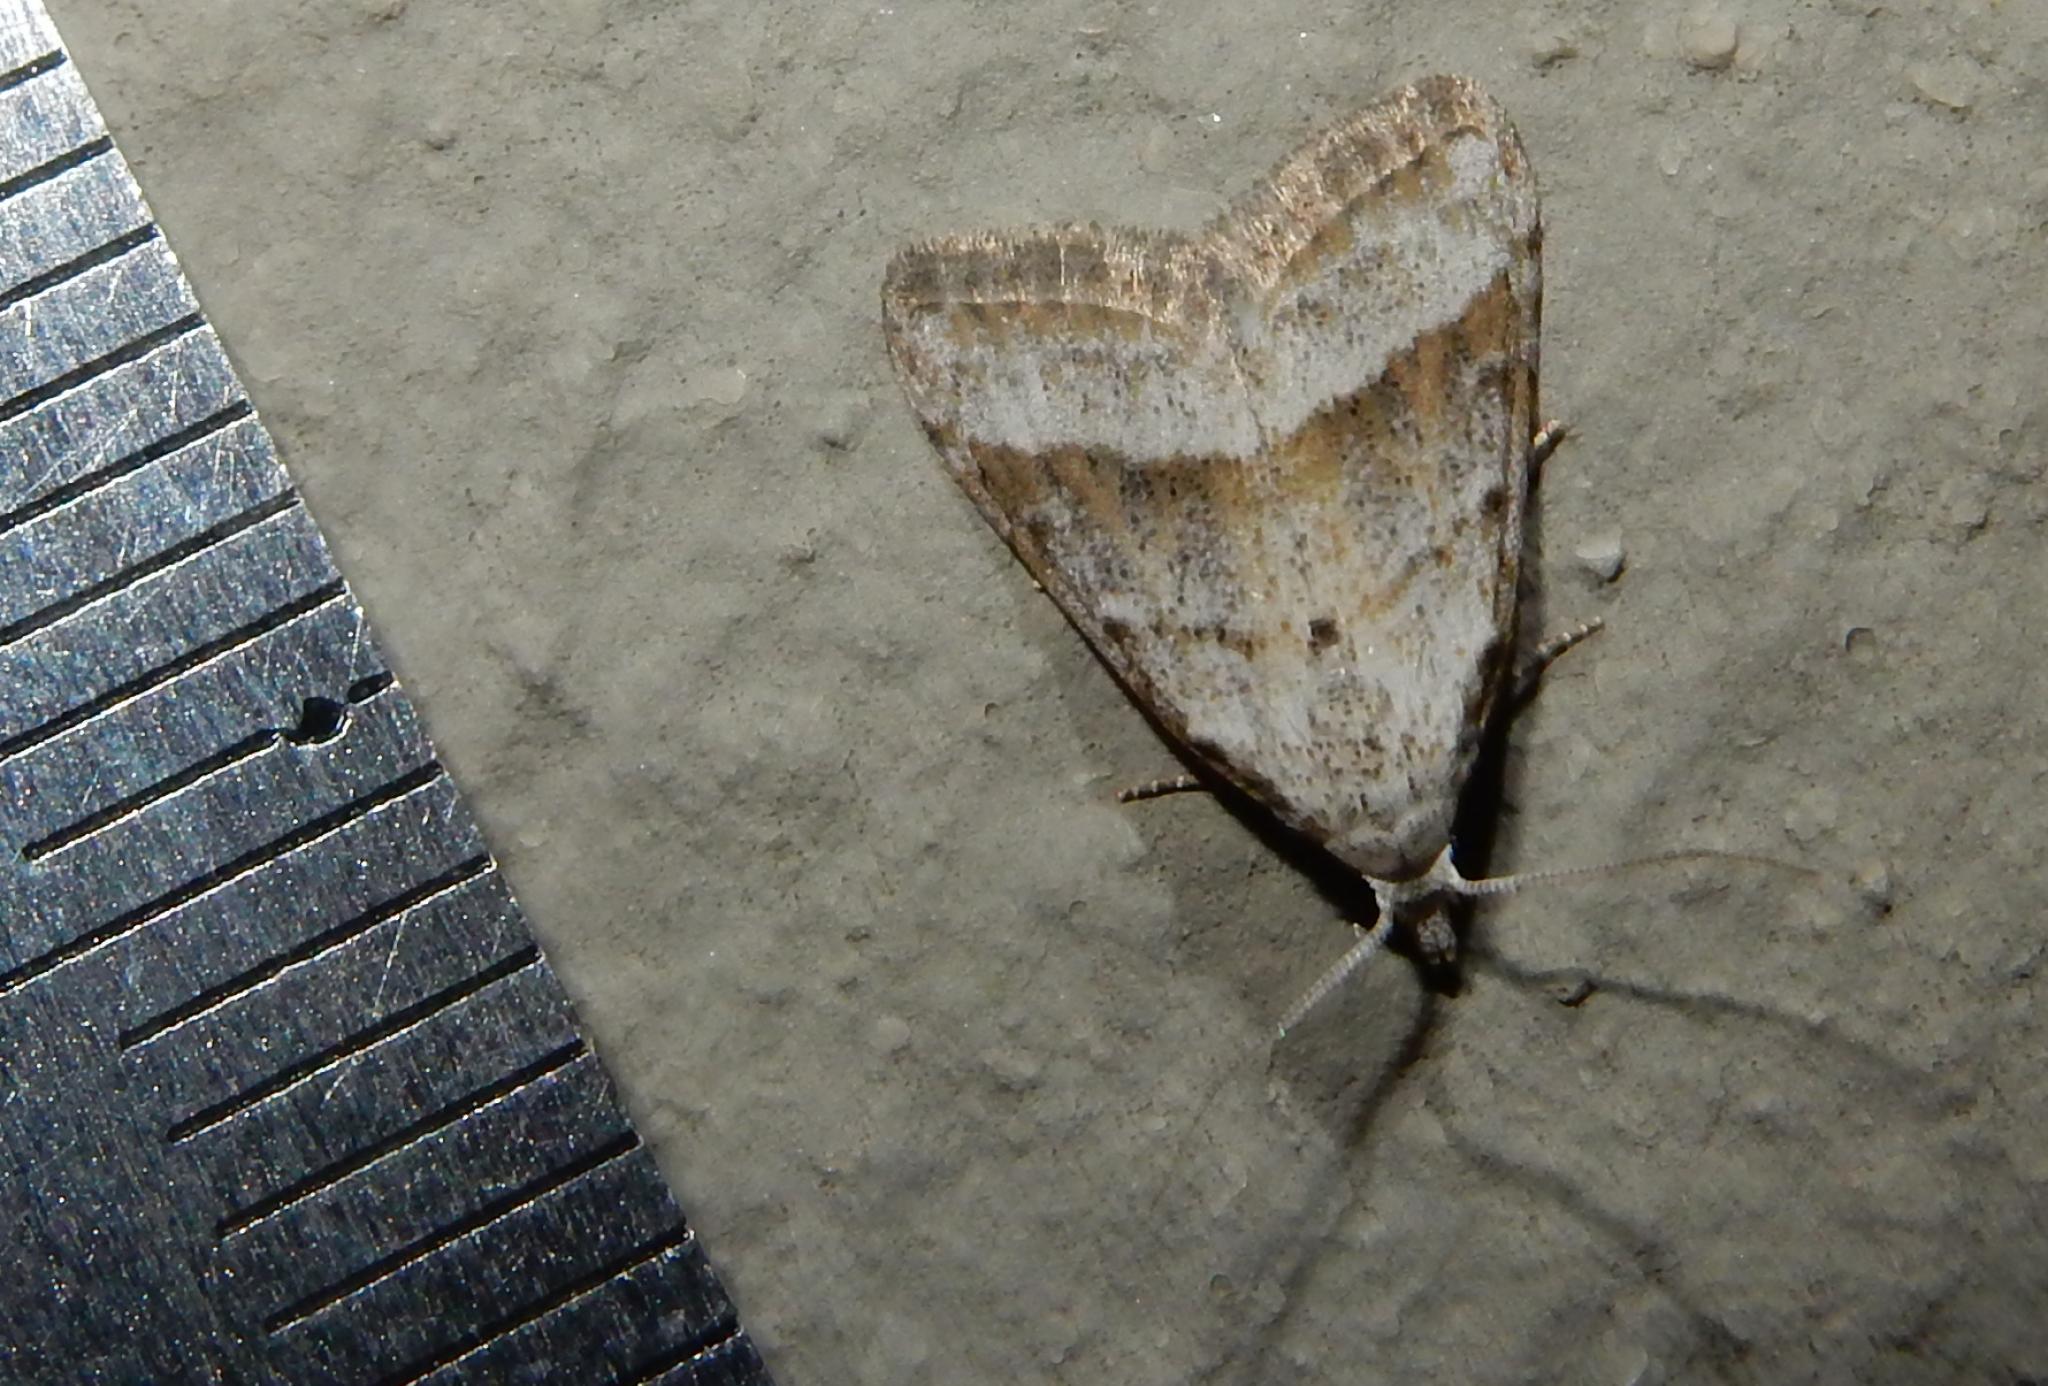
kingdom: Animalia
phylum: Arthropoda
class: Insecta
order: Lepidoptera
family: Nolidae
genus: Nola
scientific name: Nola tineoides
